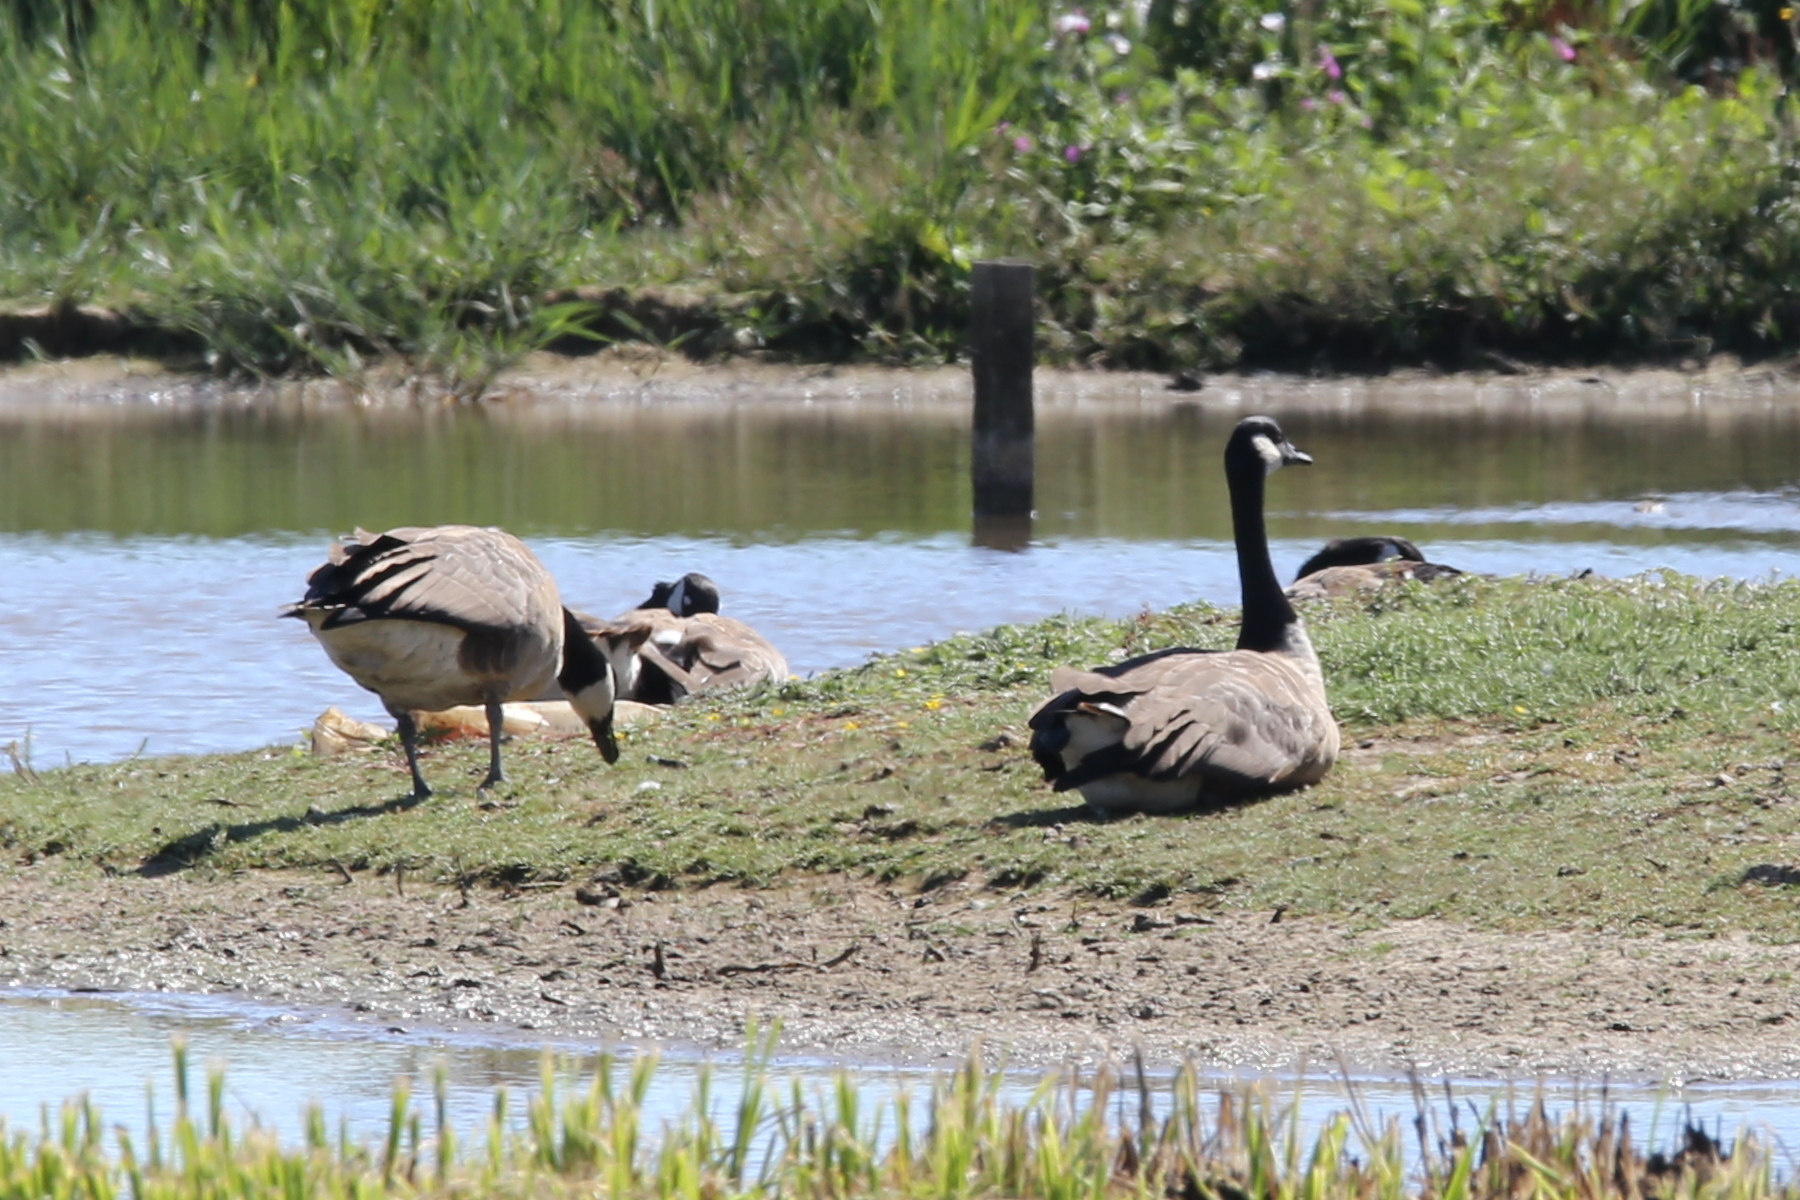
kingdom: Animalia
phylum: Chordata
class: Aves
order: Anseriformes
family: Anatidae
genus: Branta
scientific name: Branta canadensis
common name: Canada goose
